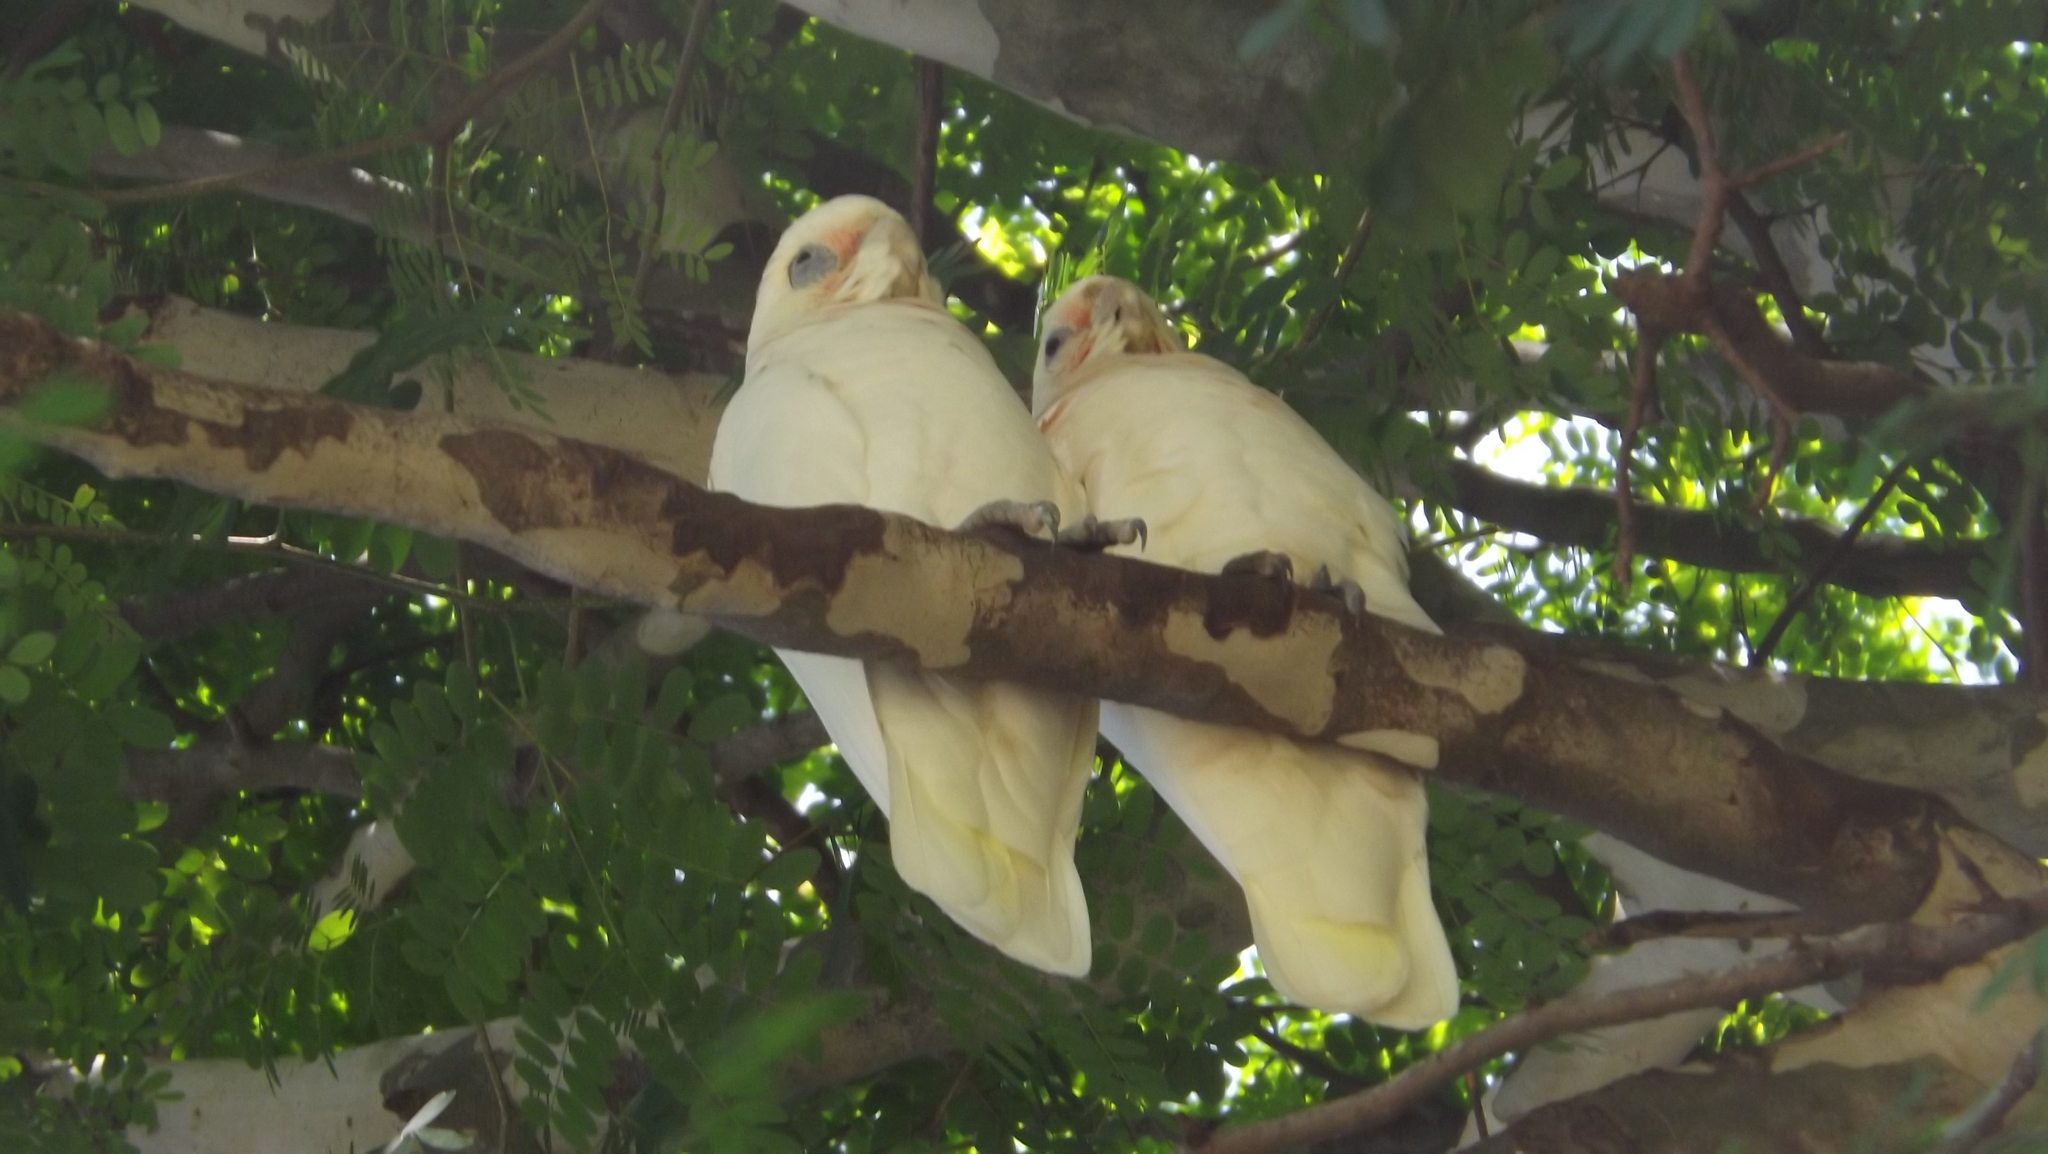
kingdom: Animalia
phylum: Chordata
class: Aves
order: Psittaciformes
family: Psittacidae
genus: Cacatua
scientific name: Cacatua sanguinea
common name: Little corella
